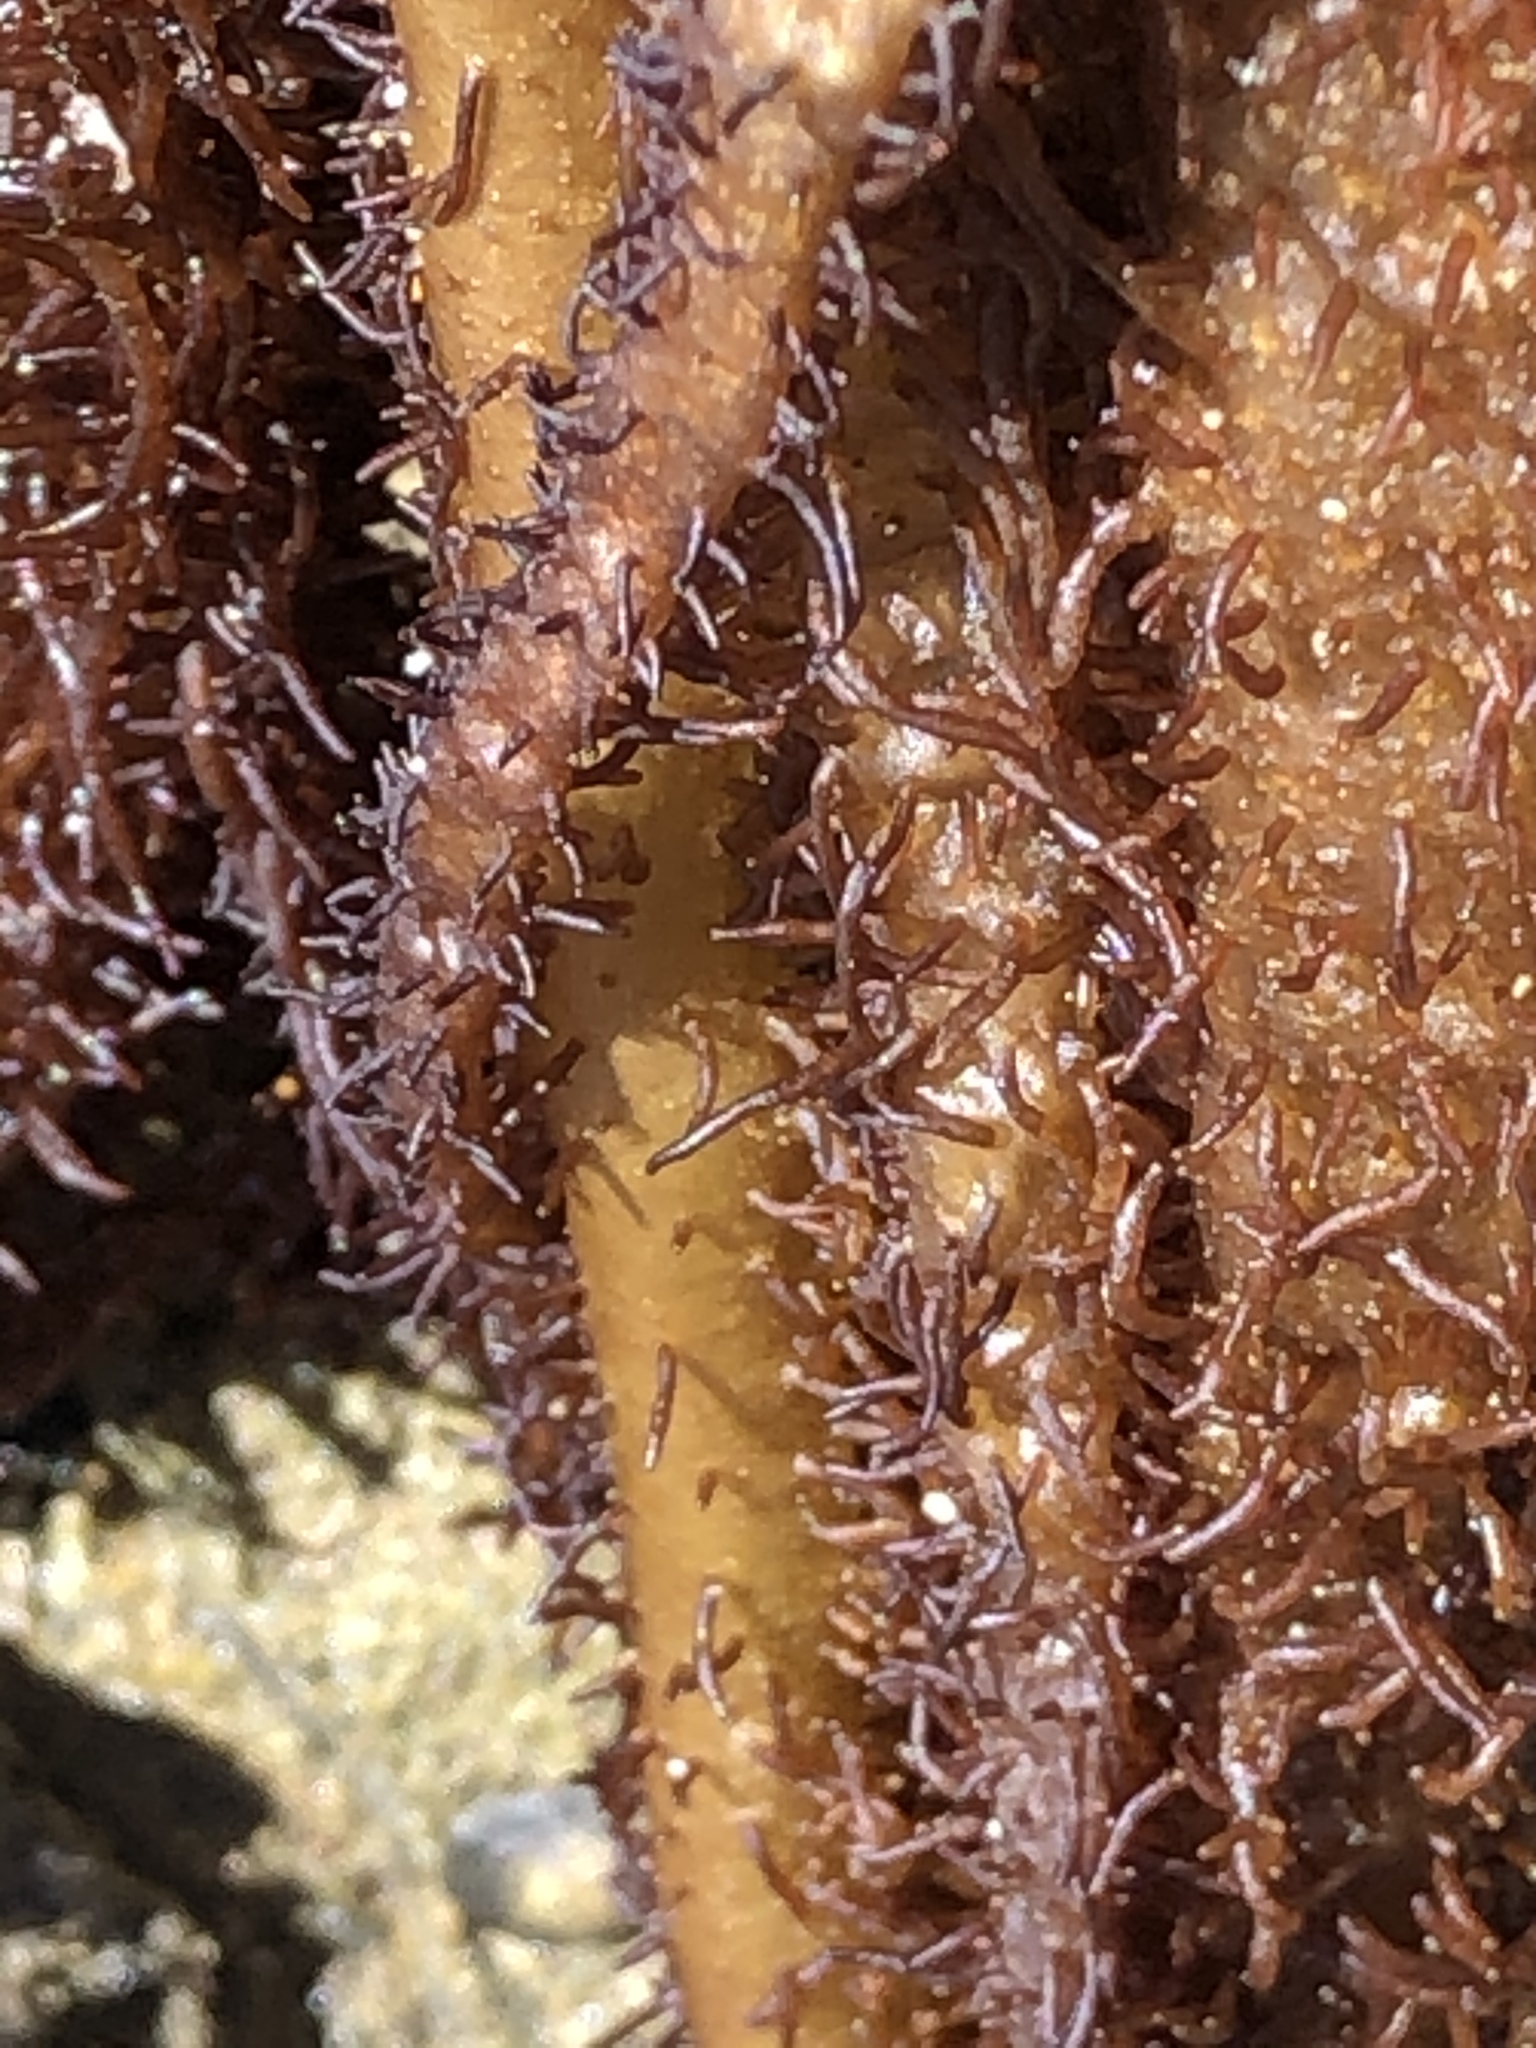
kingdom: Plantae
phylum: Rhodophyta
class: Florideophyceae
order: Nemaliales
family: Liagoraceae
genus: Cumagloia
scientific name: Cumagloia andersonii
